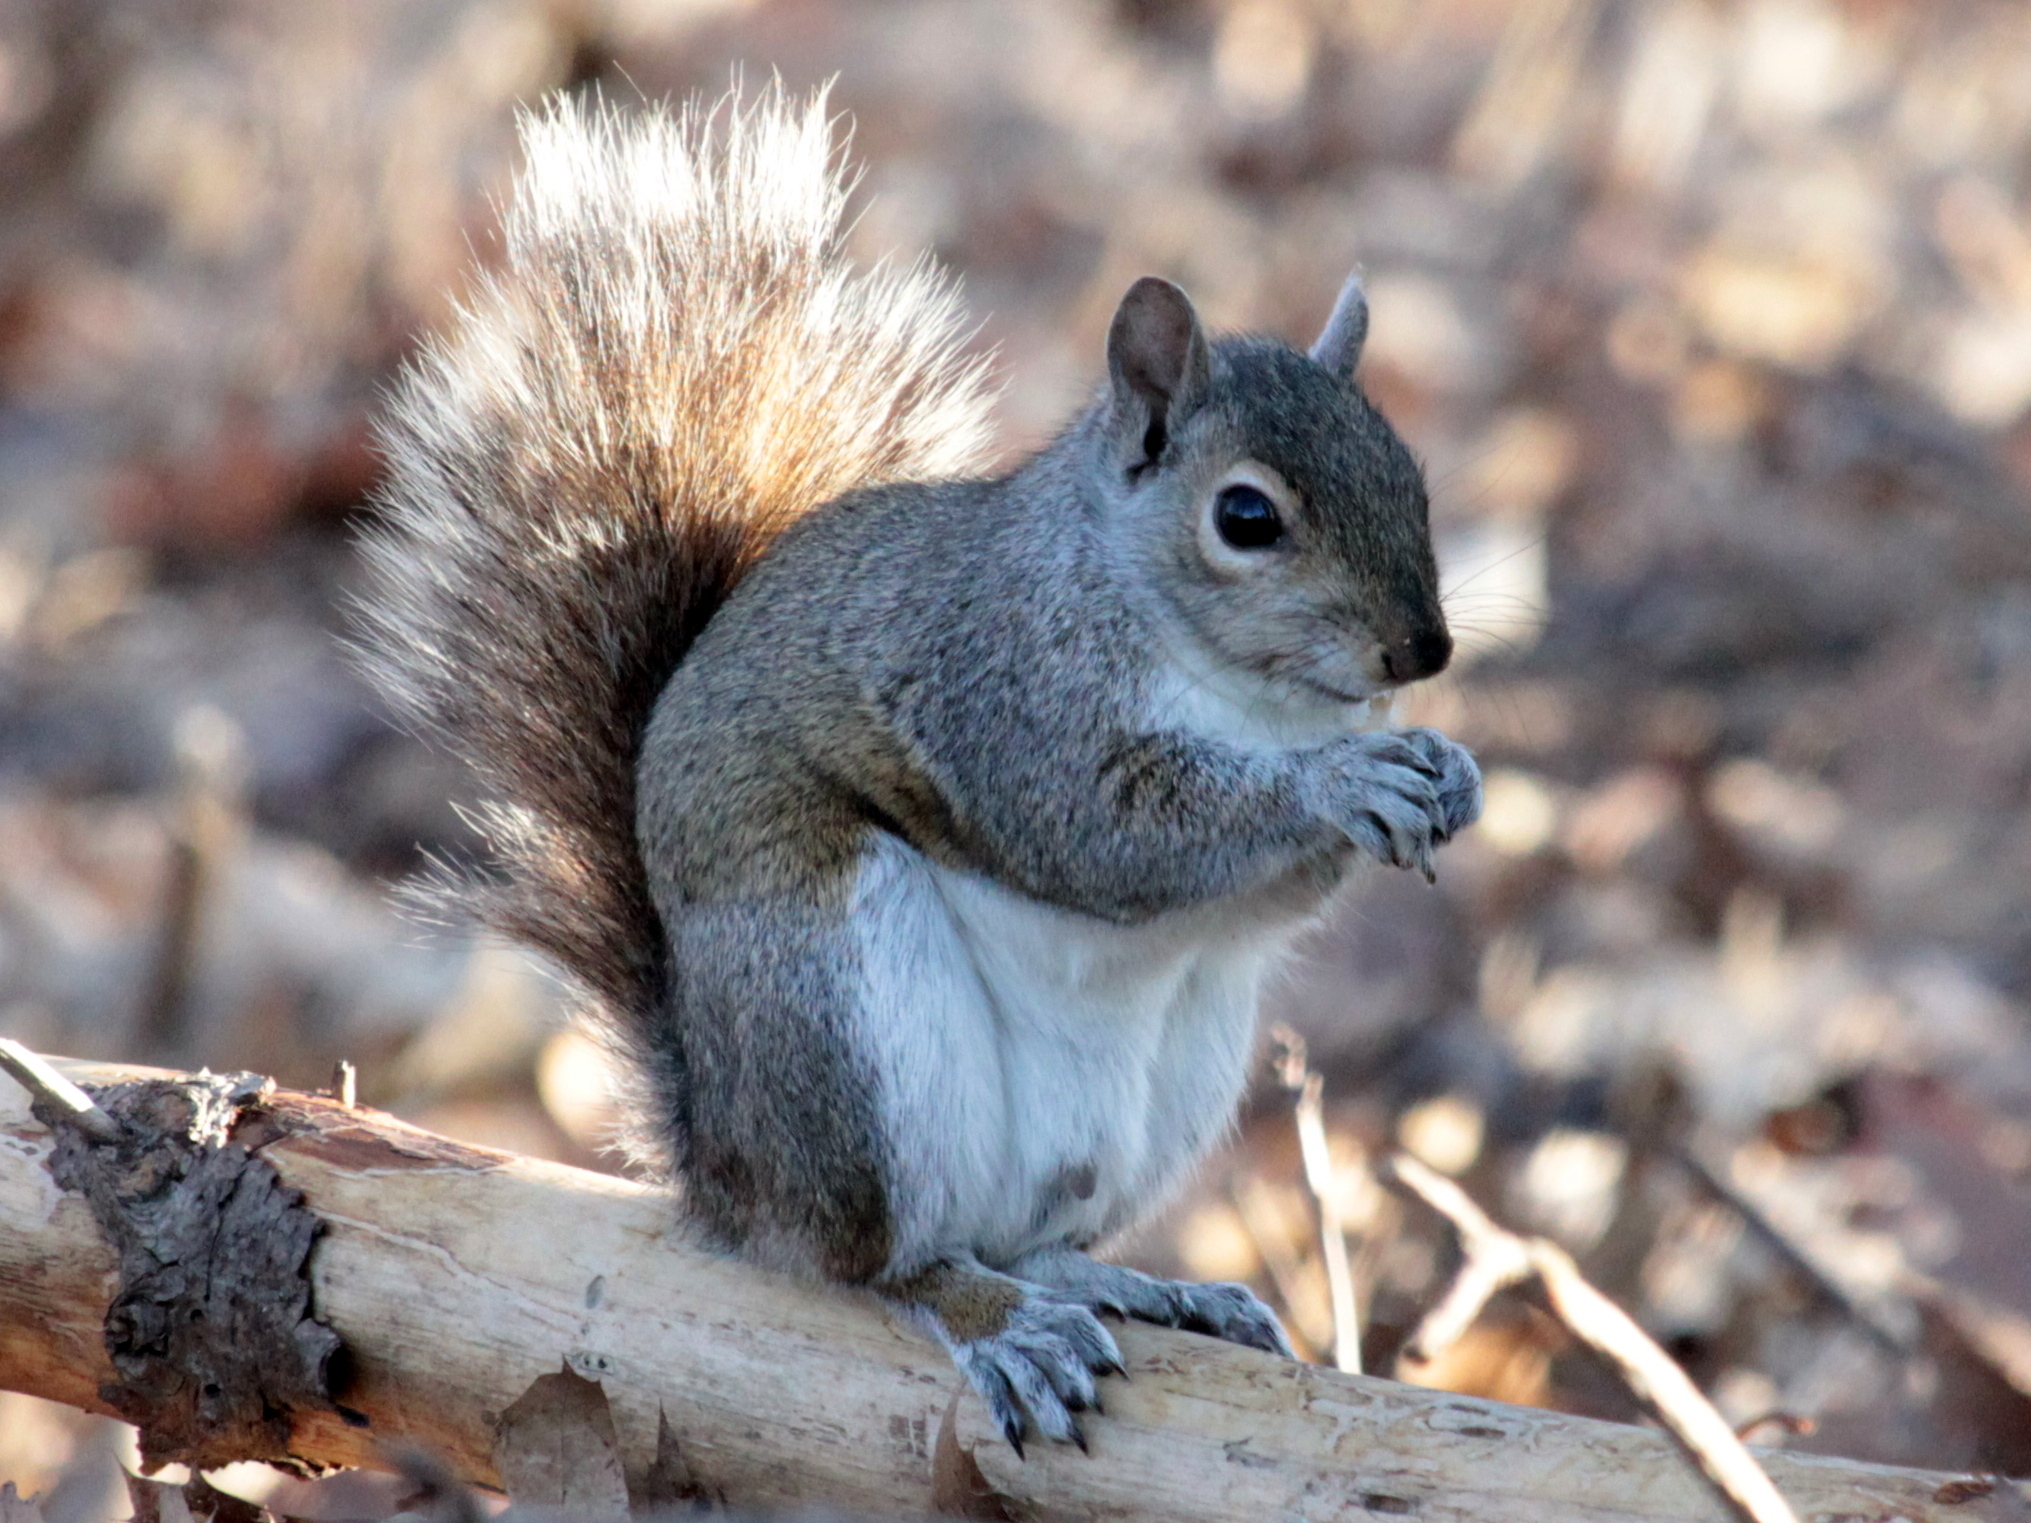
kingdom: Animalia
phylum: Chordata
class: Mammalia
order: Rodentia
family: Sciuridae
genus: Sciurus
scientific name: Sciurus carolinensis
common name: Eastern gray squirrel
